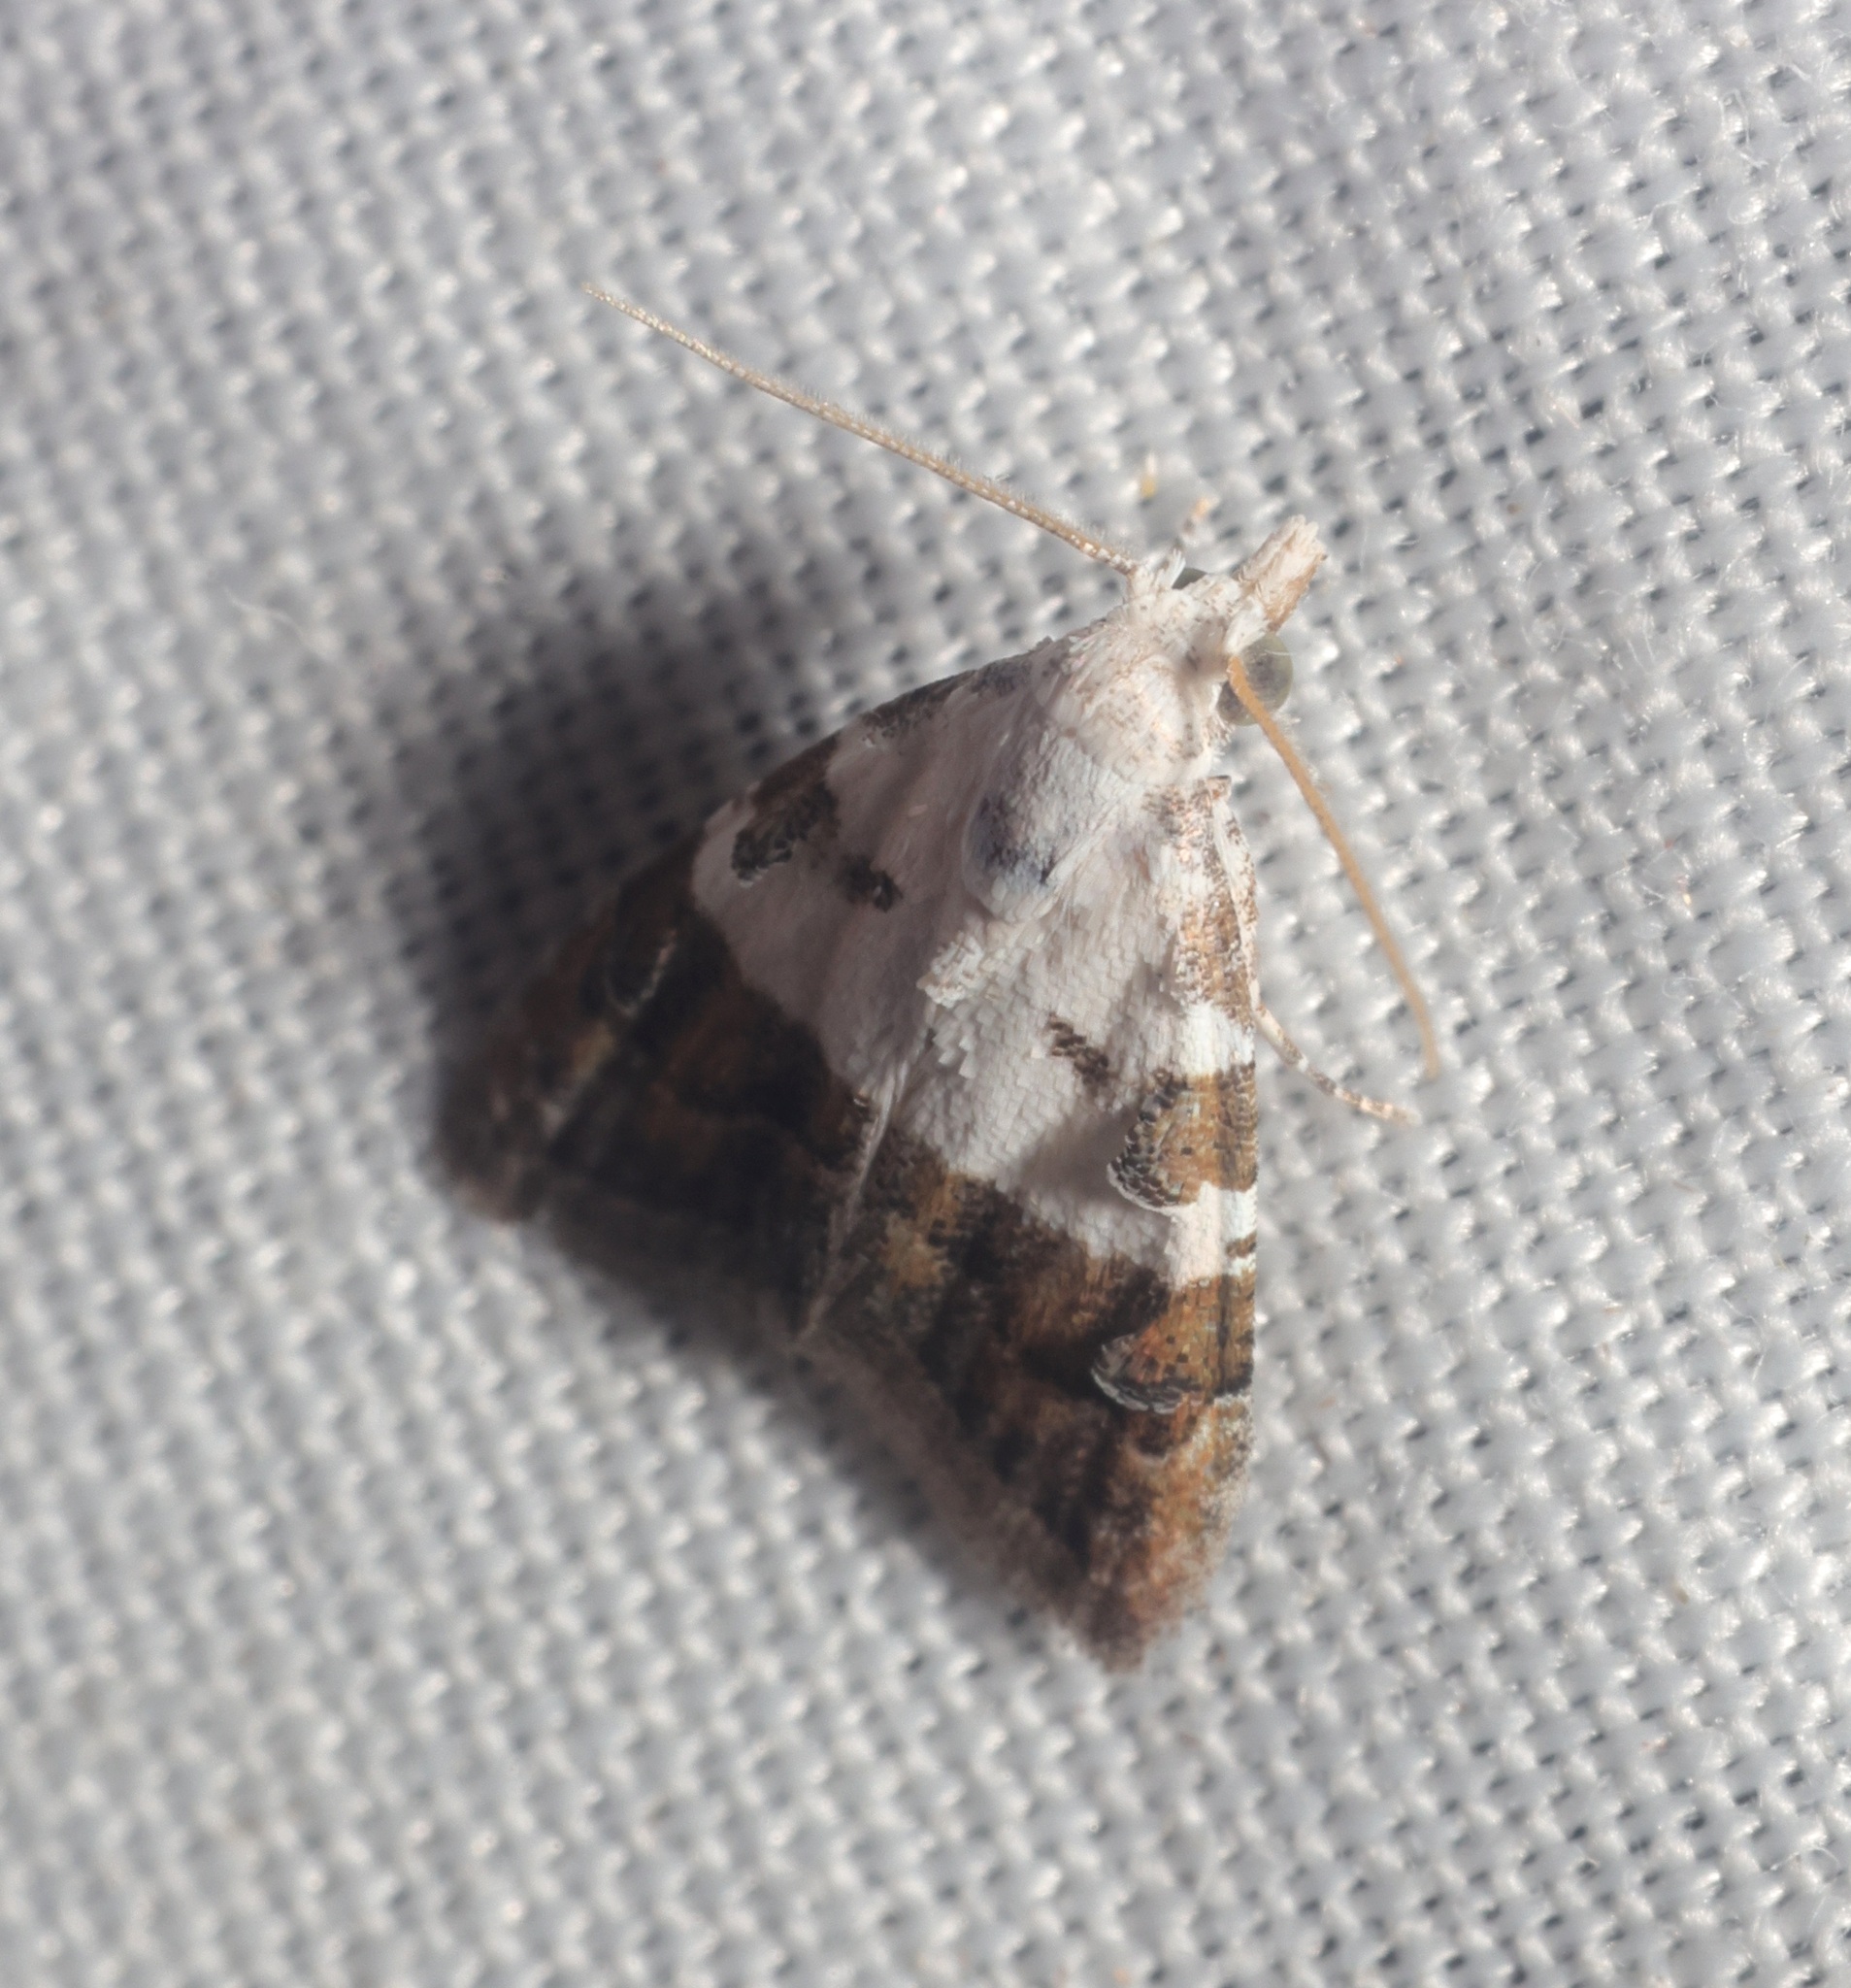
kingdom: Animalia
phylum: Arthropoda
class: Insecta
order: Lepidoptera
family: Nolidae
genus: Nola
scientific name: Nola lucidalis
